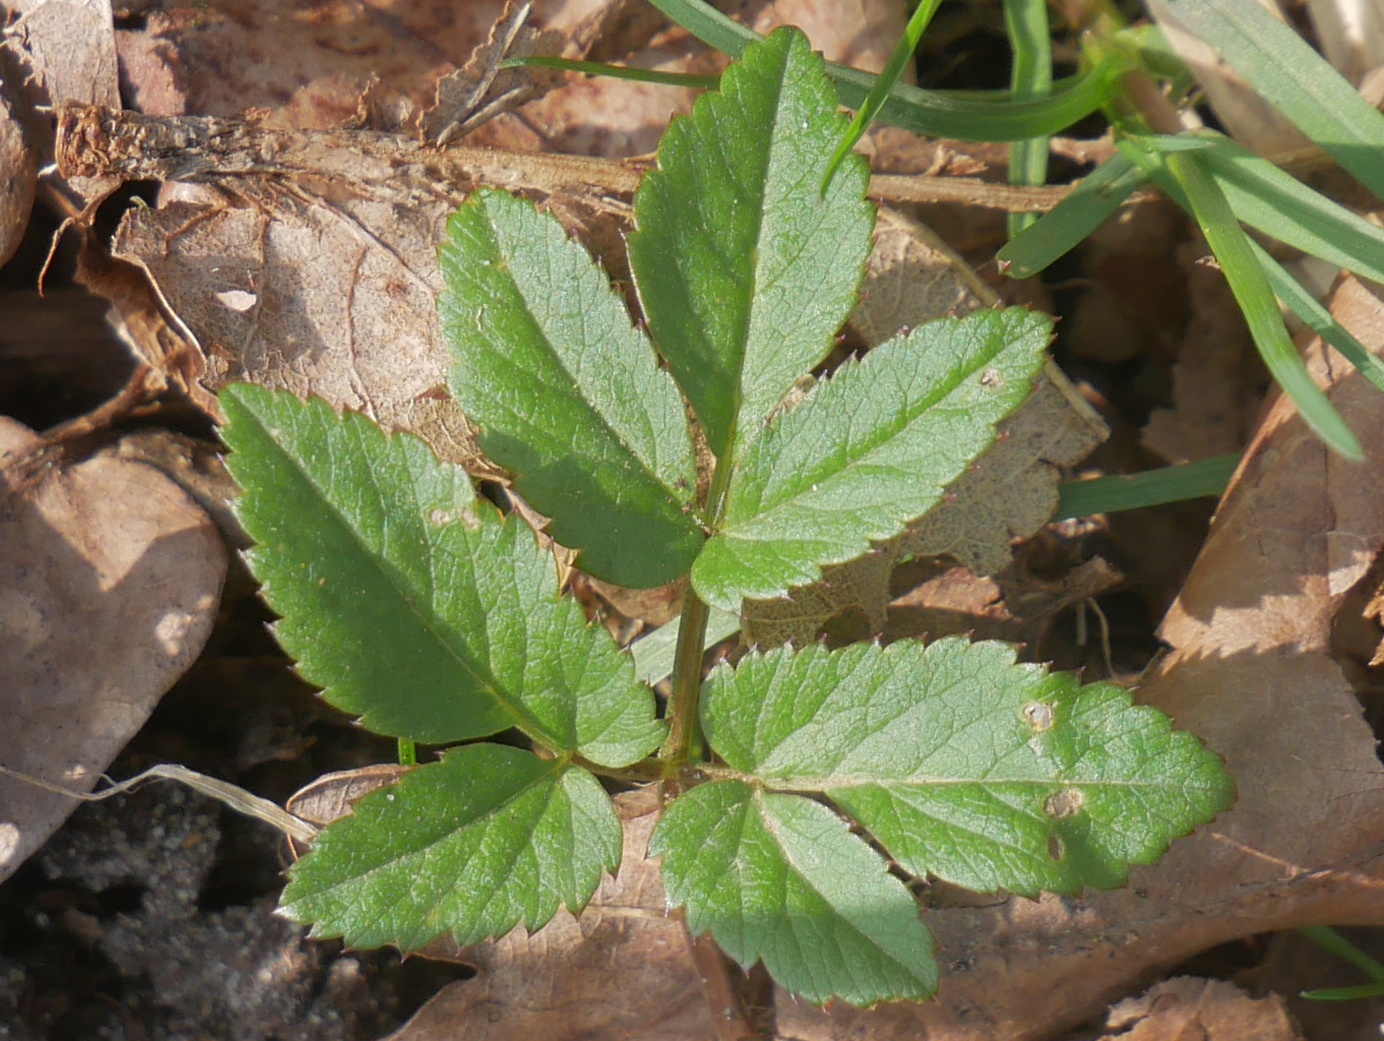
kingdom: Plantae
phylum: Tracheophyta
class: Magnoliopsida
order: Apiales
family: Apiaceae
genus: Aegopodium
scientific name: Aegopodium podagraria
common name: Ground-elder
